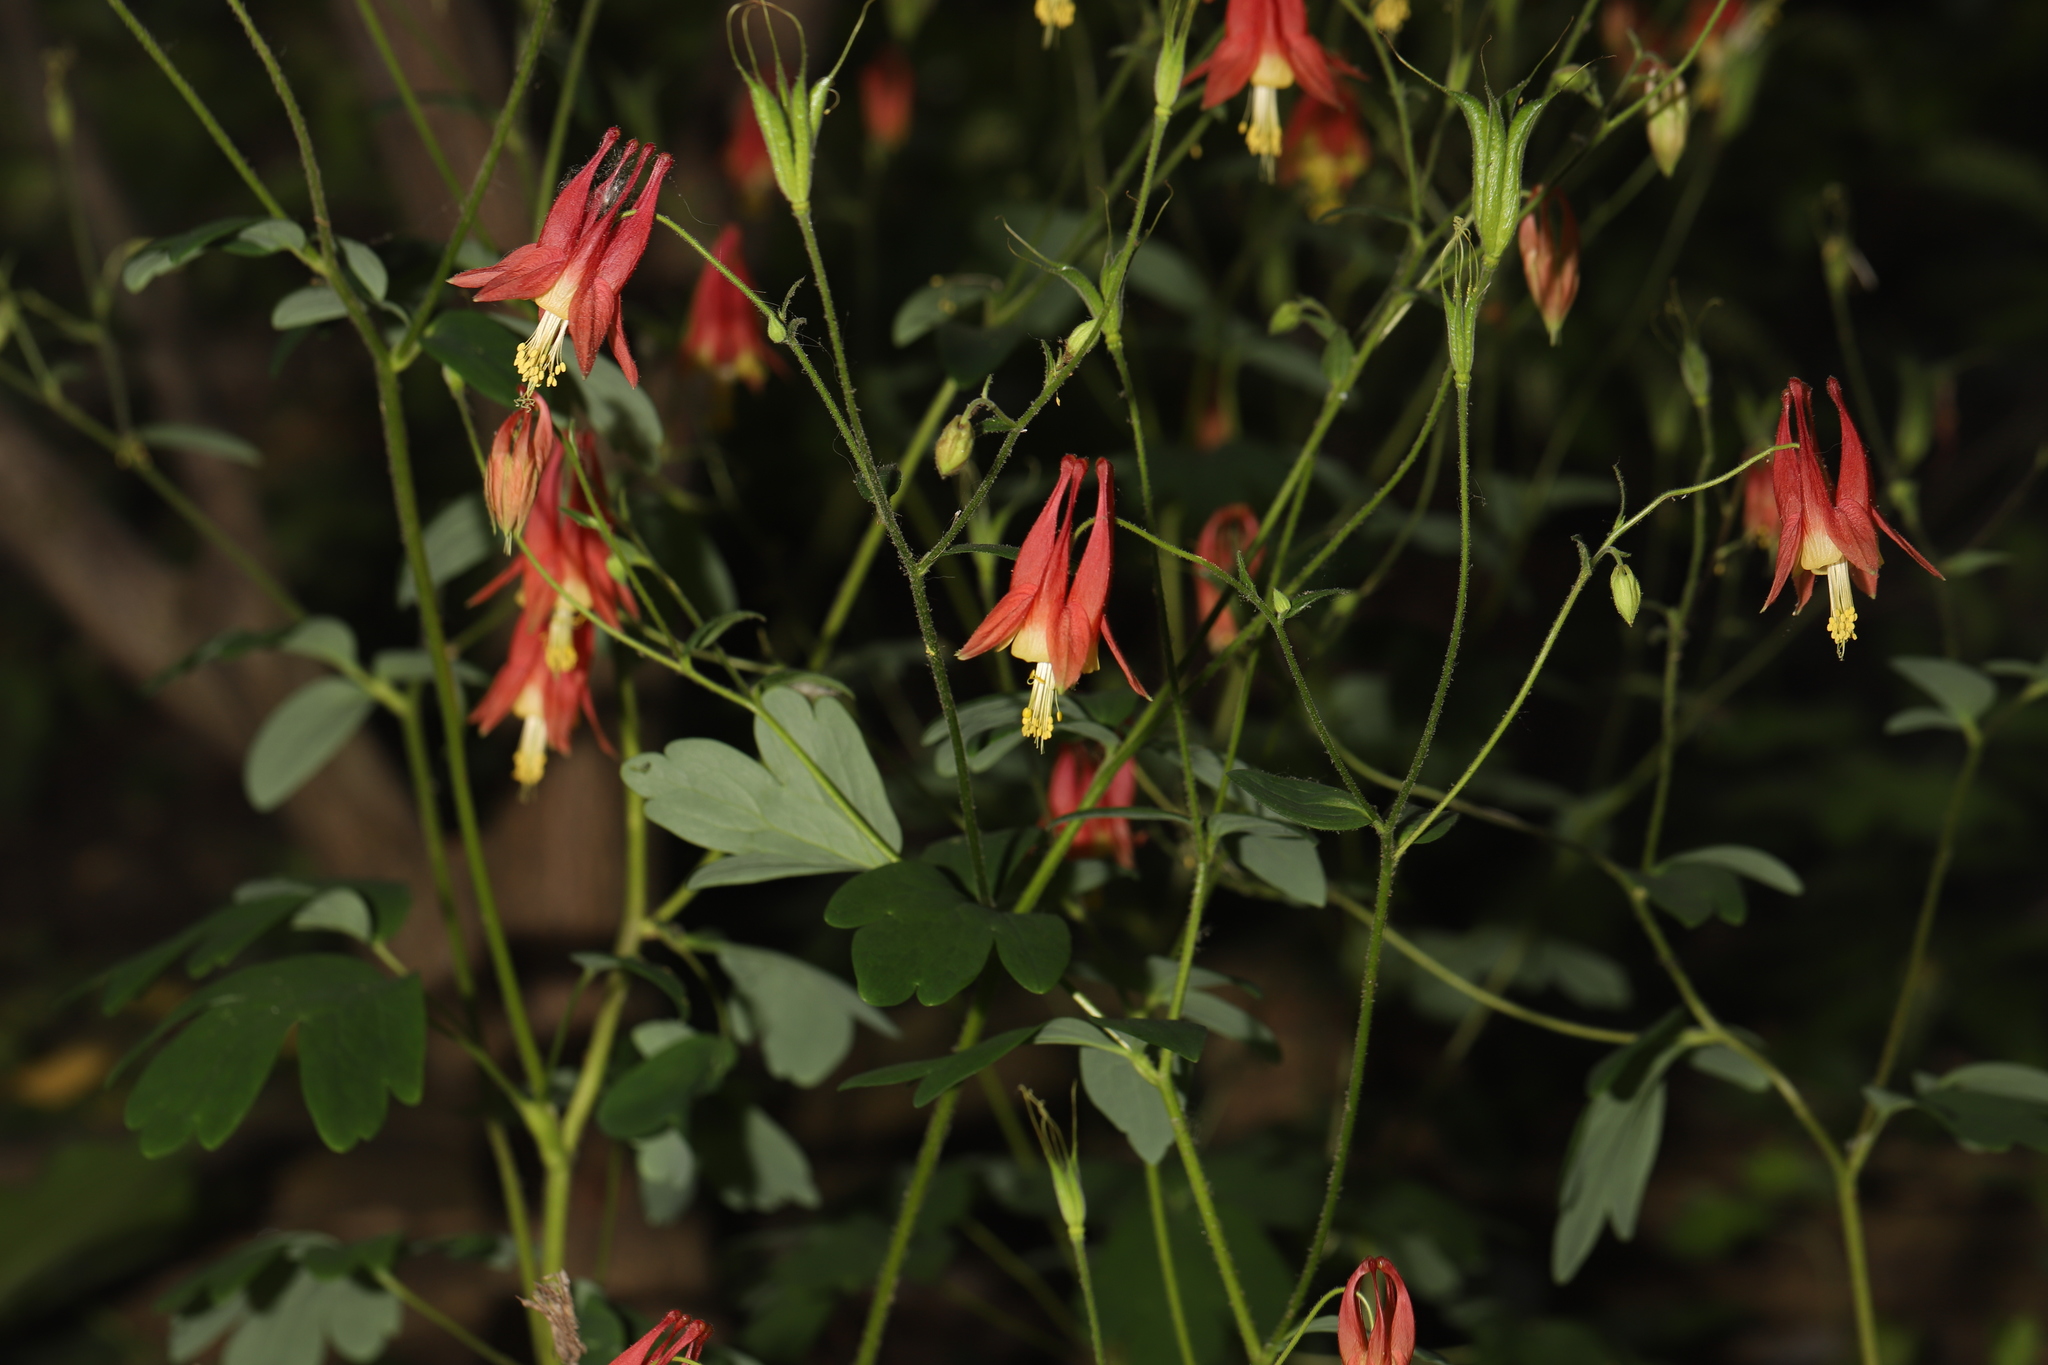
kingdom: Plantae
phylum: Tracheophyta
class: Magnoliopsida
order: Ranunculales
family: Ranunculaceae
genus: Aquilegia
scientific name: Aquilegia canadensis
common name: American columbine
